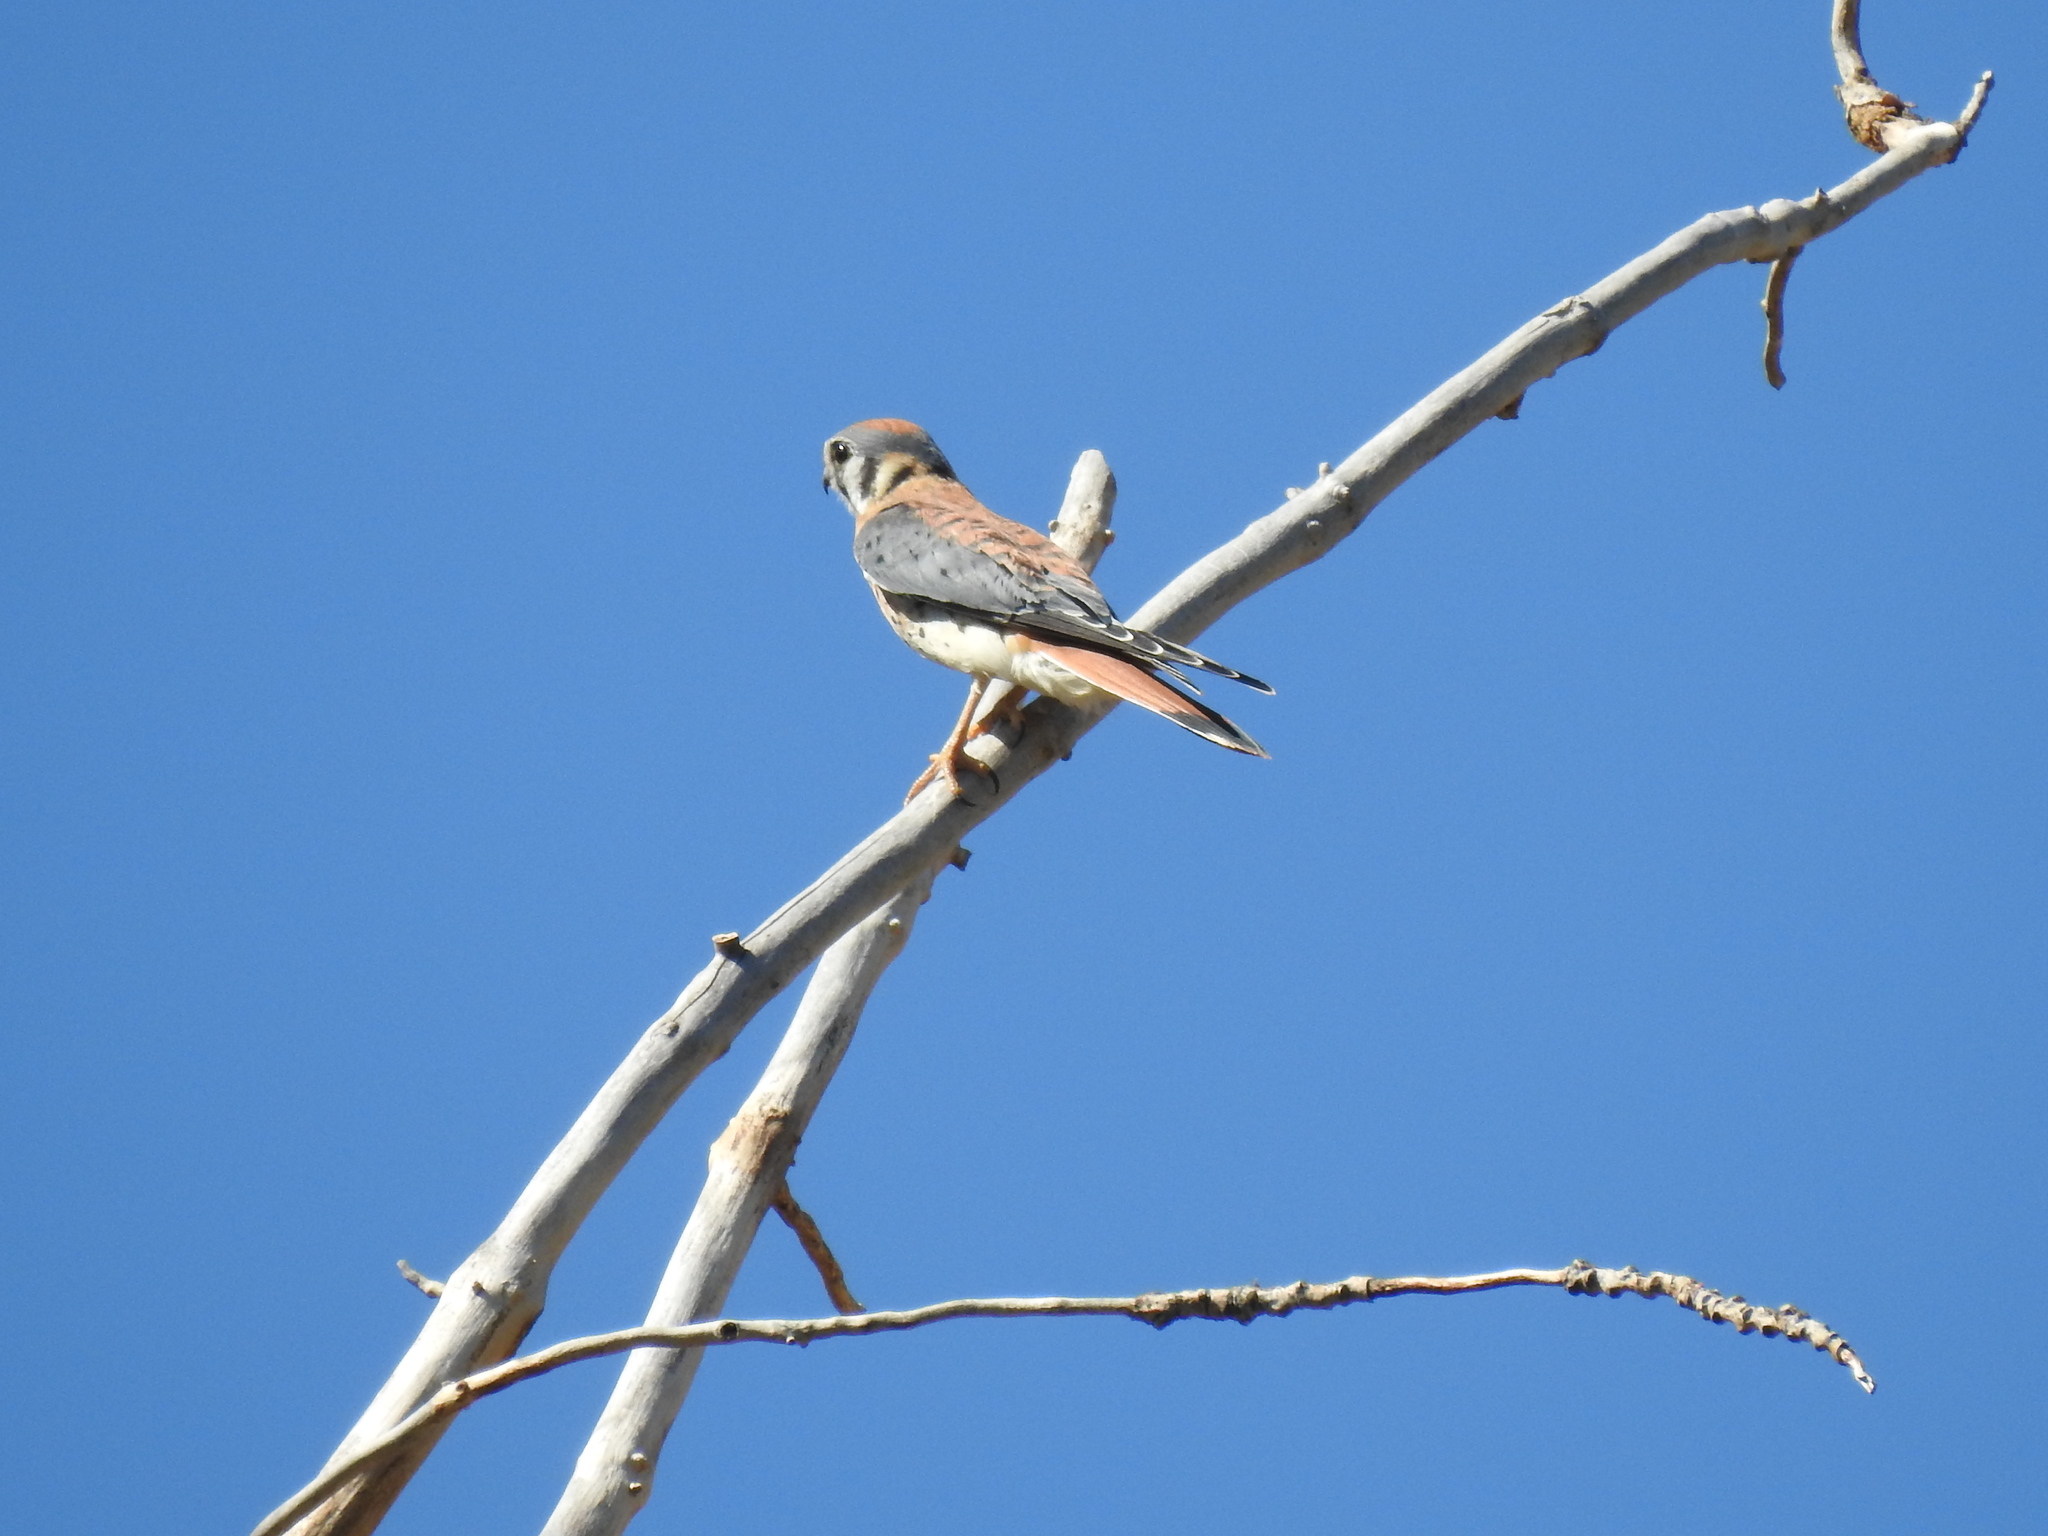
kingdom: Animalia
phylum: Chordata
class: Aves
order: Falconiformes
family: Falconidae
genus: Falco
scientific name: Falco sparverius
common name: American kestrel
